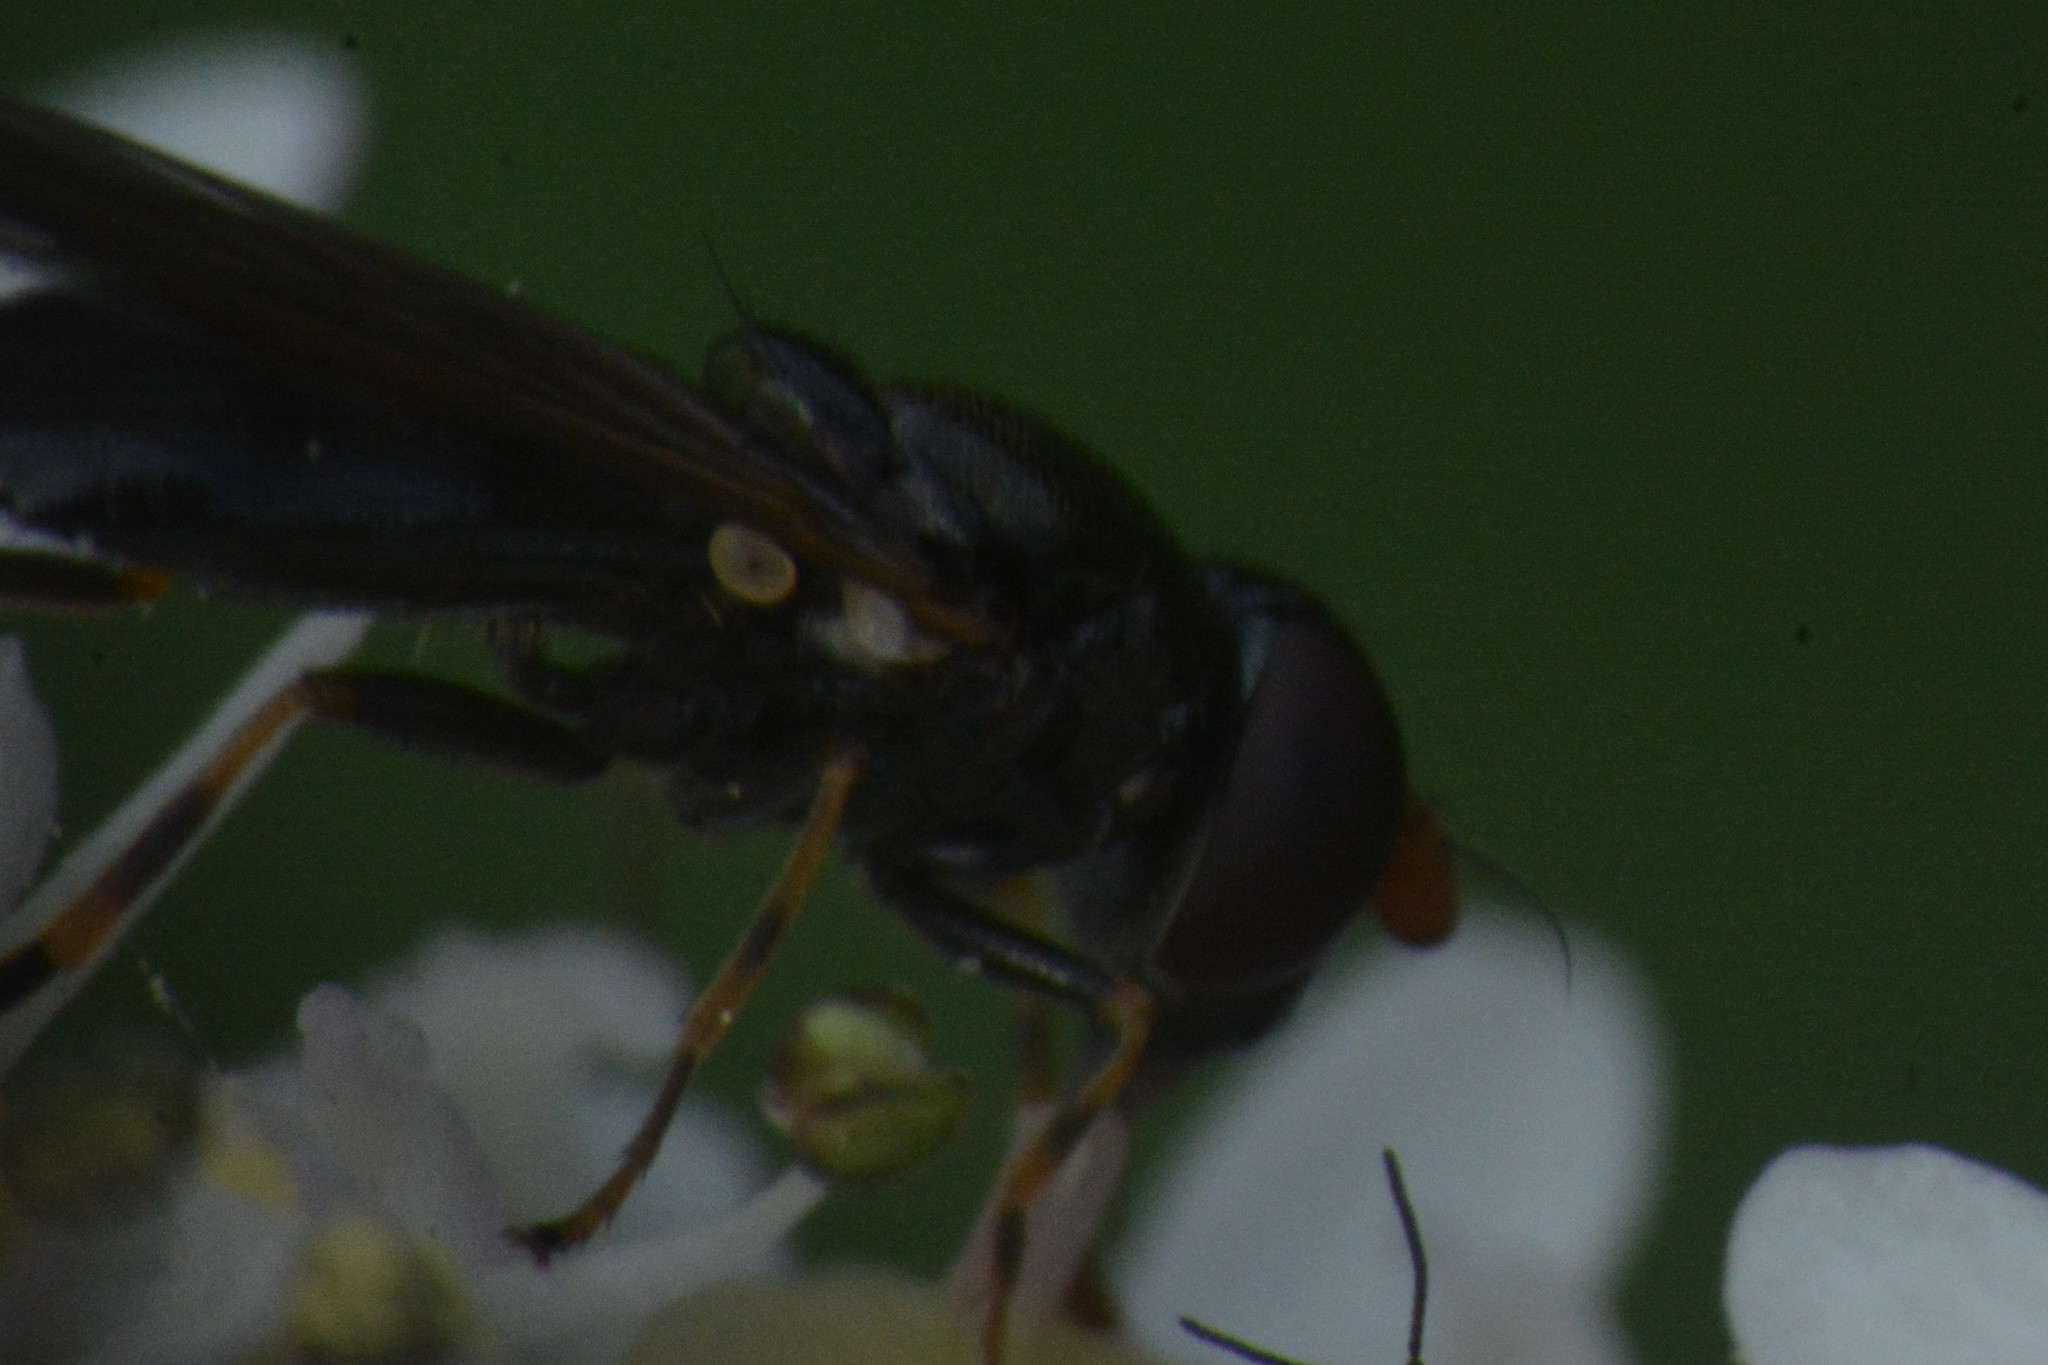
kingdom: Animalia
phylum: Arthropoda
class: Insecta
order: Diptera
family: Syrphidae
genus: Cheilosia
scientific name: Cheilosia pagana
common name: Hover fly
